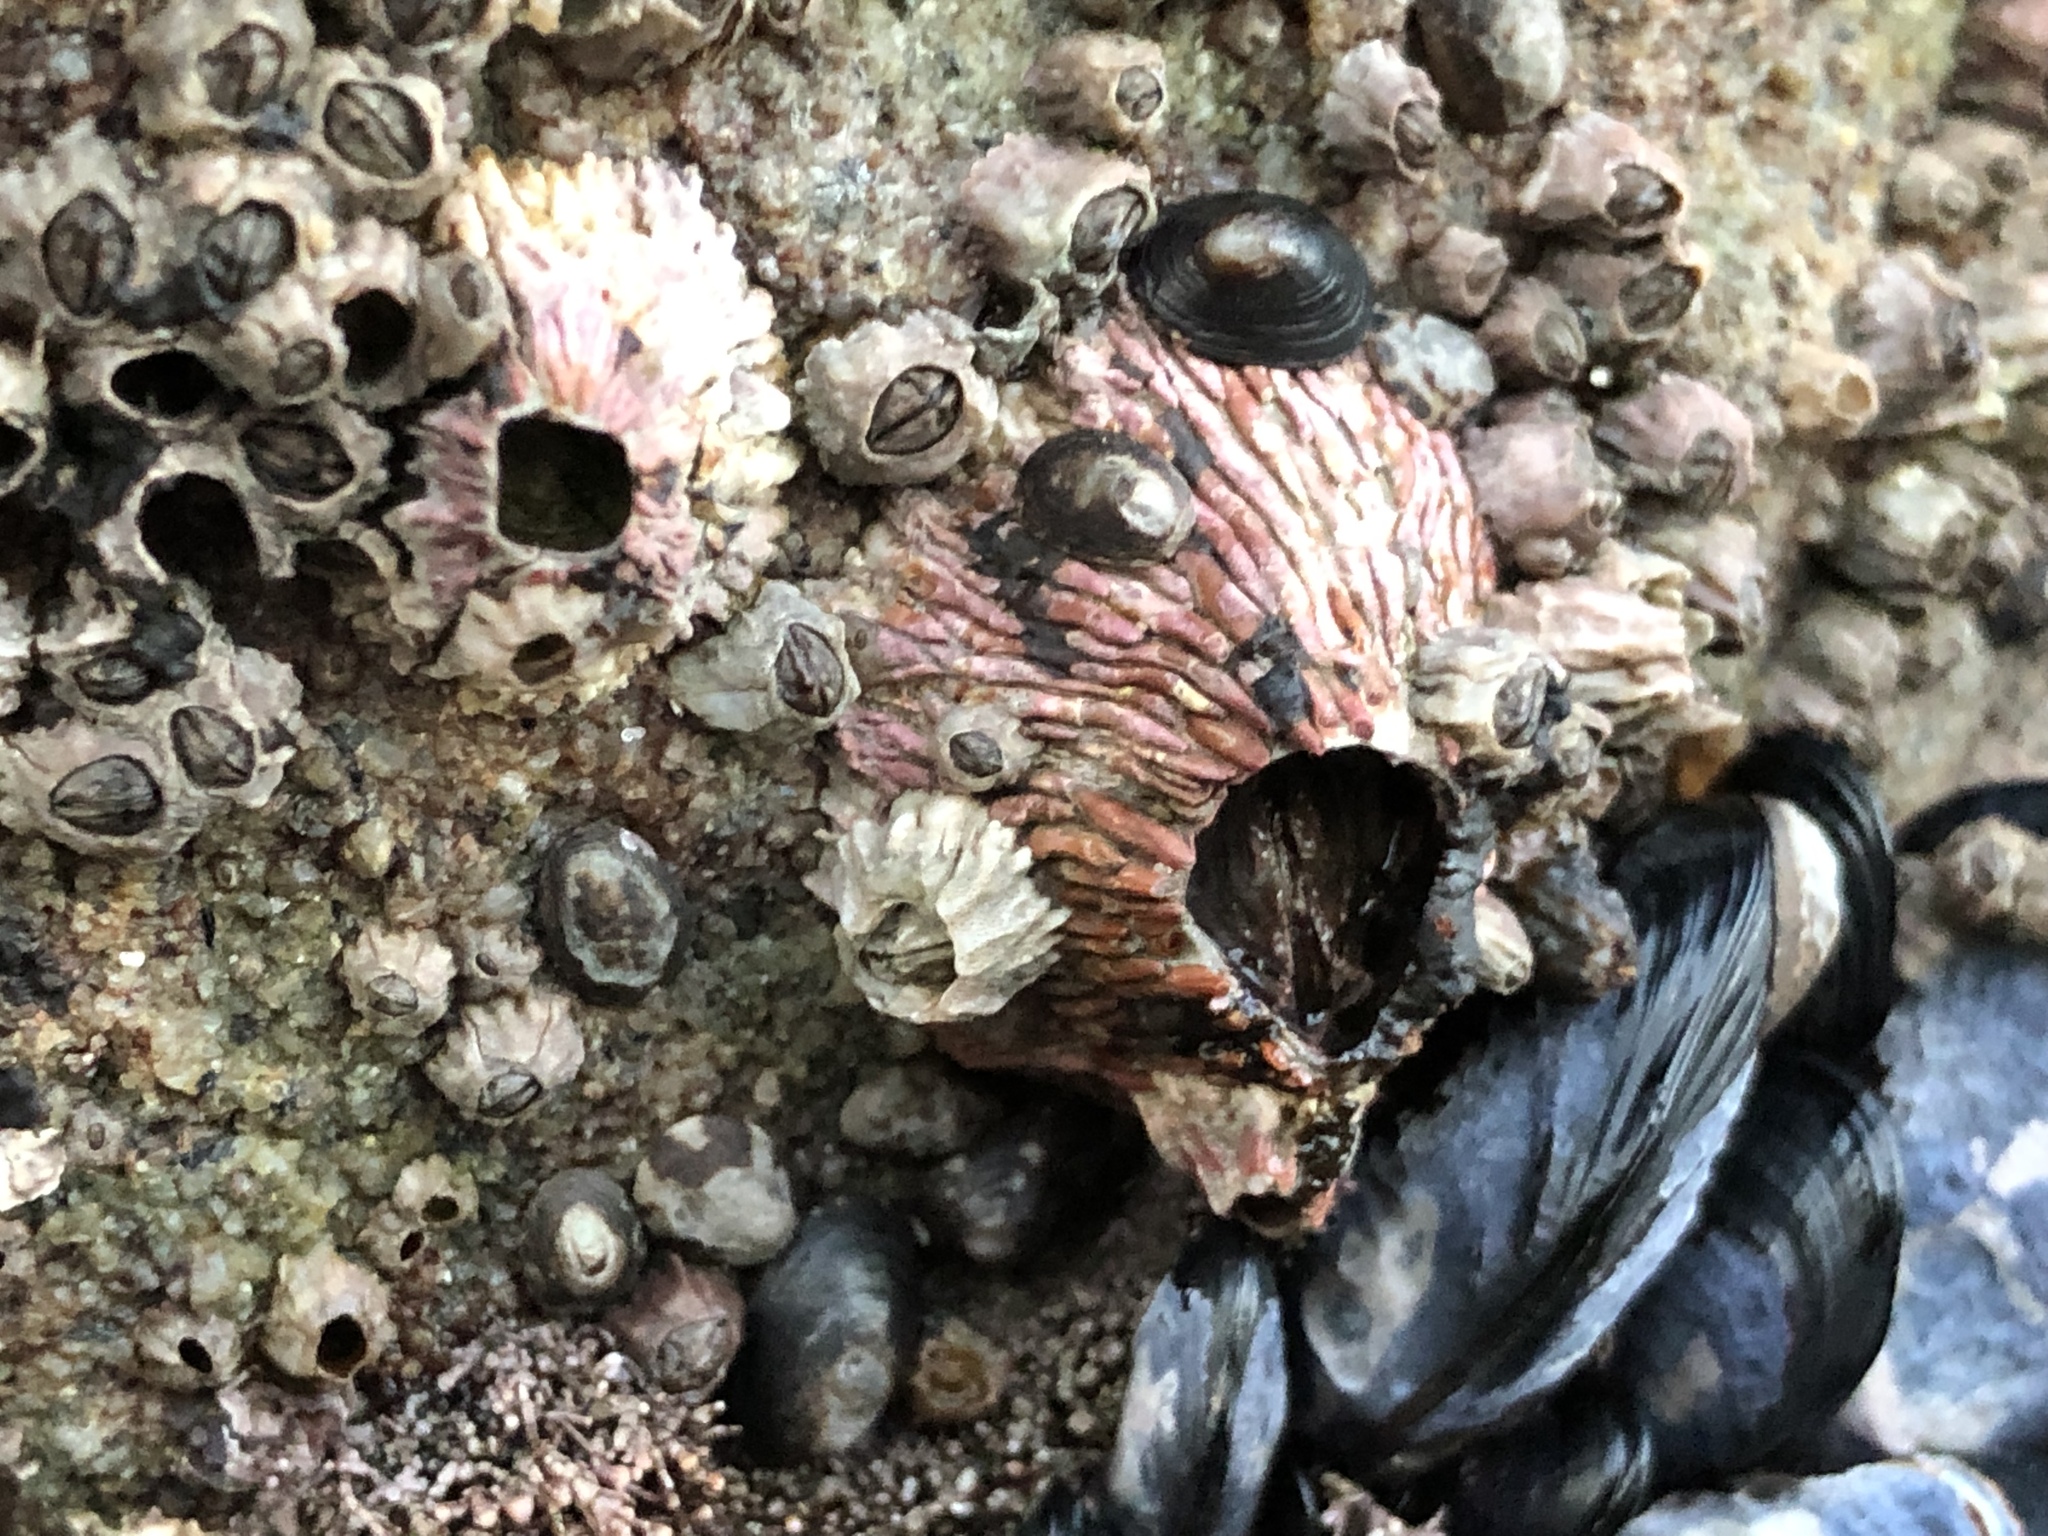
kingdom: Animalia
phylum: Arthropoda
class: Maxillopoda
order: Sessilia
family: Tetraclitidae
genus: Tetraclita
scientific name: Tetraclita rubescens
